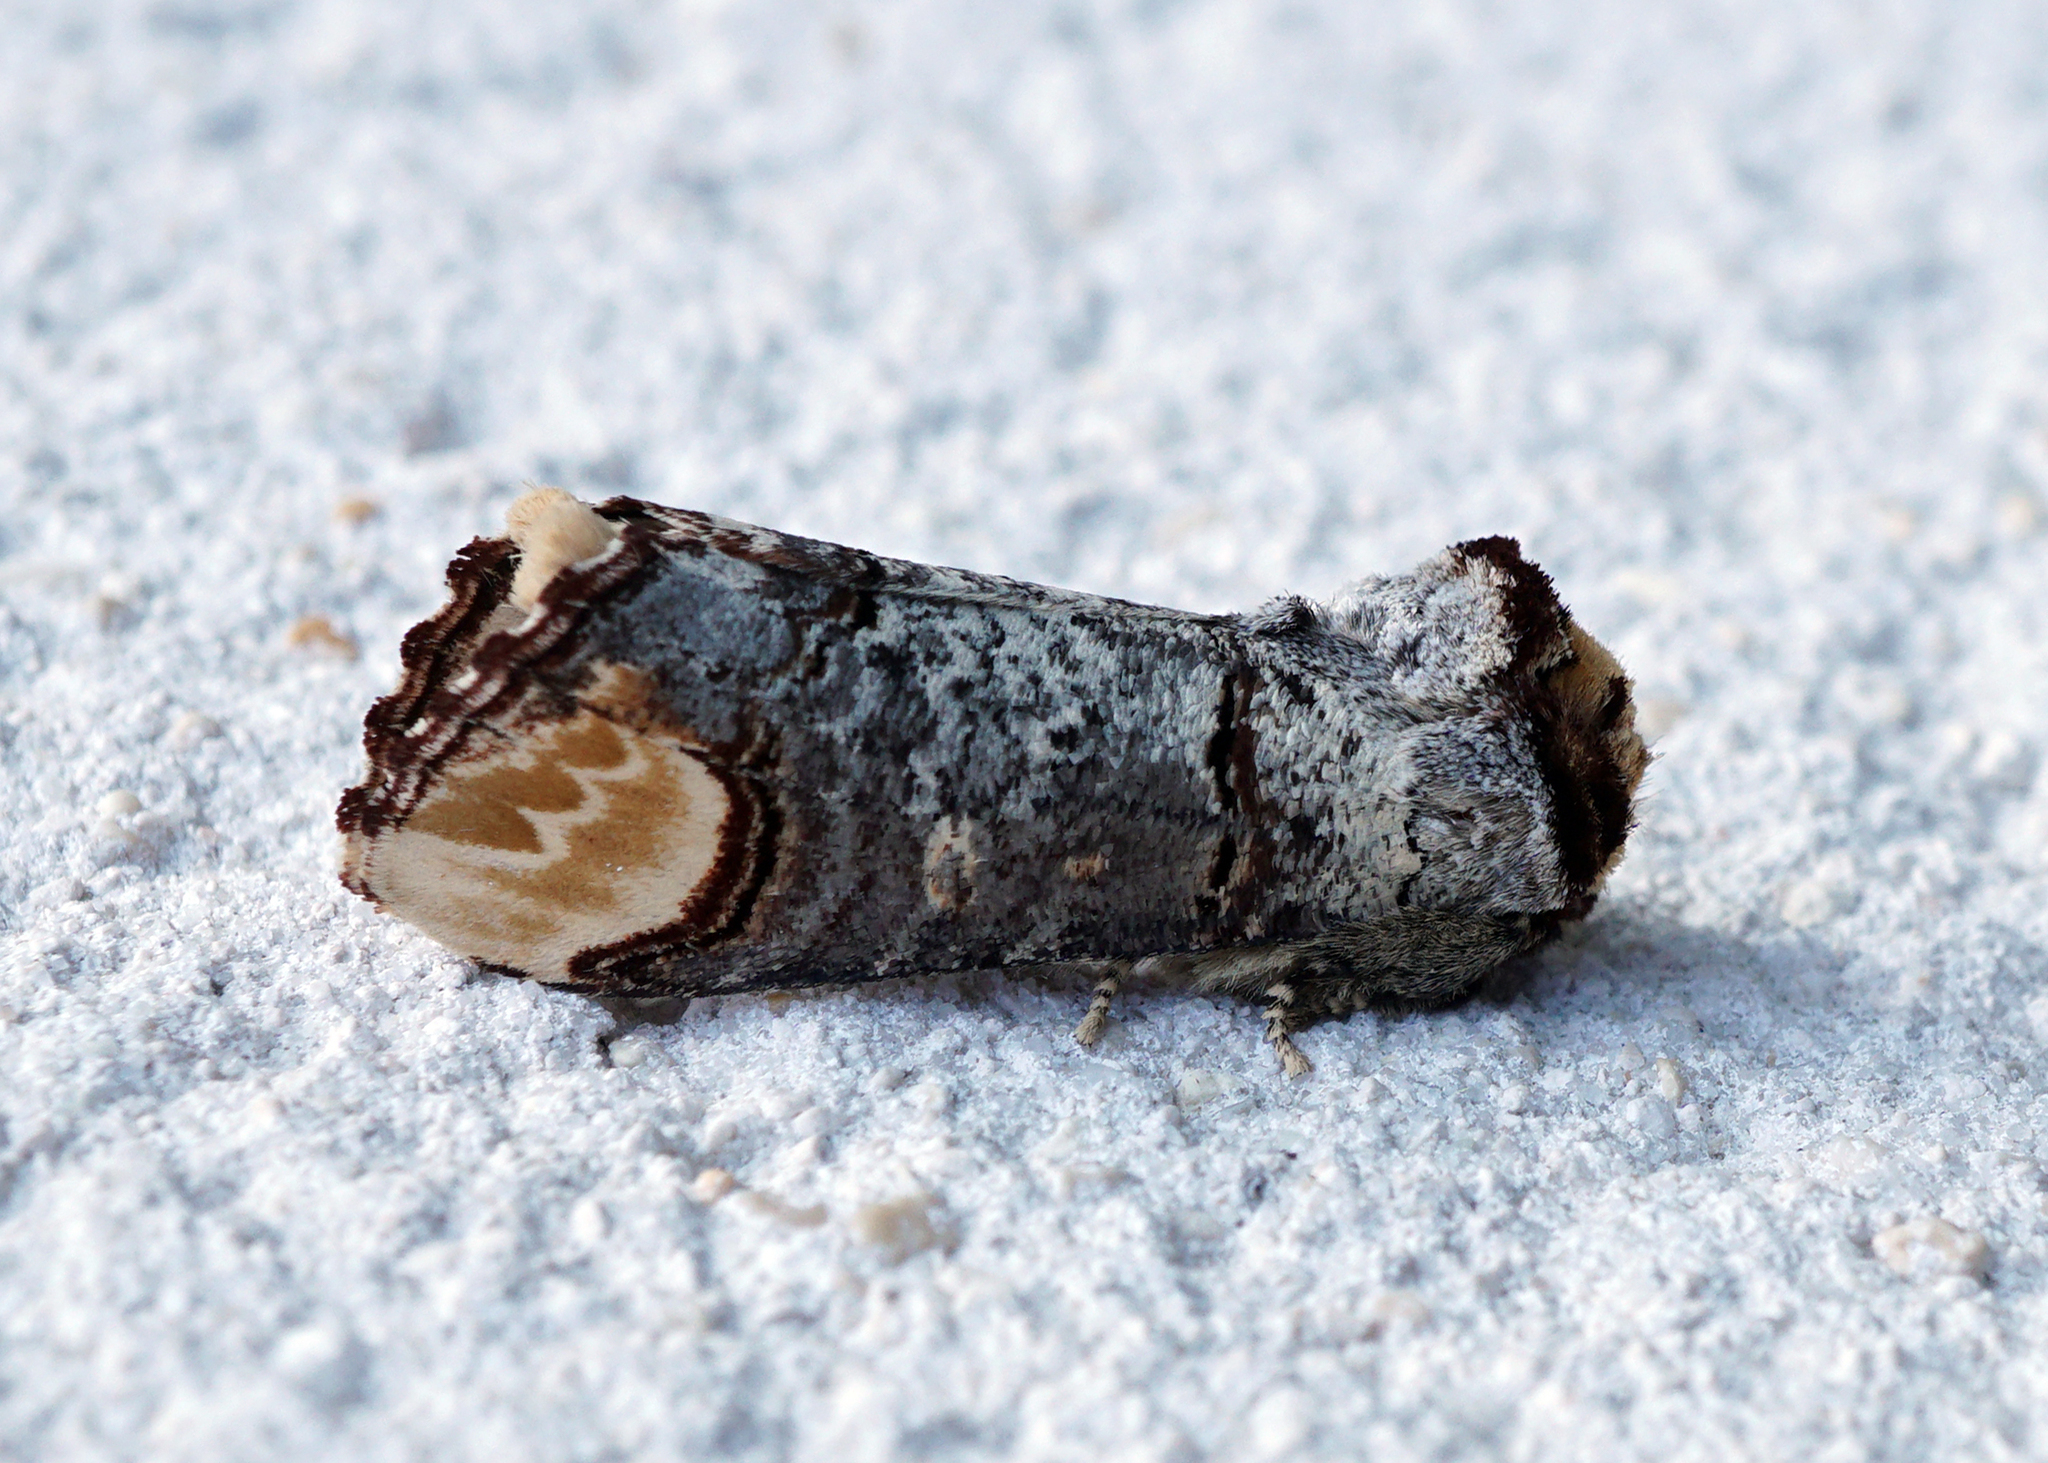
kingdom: Animalia
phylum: Arthropoda
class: Insecta
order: Lepidoptera
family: Notodontidae
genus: Phalera
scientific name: Phalera bucephala
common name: Buff-tip
